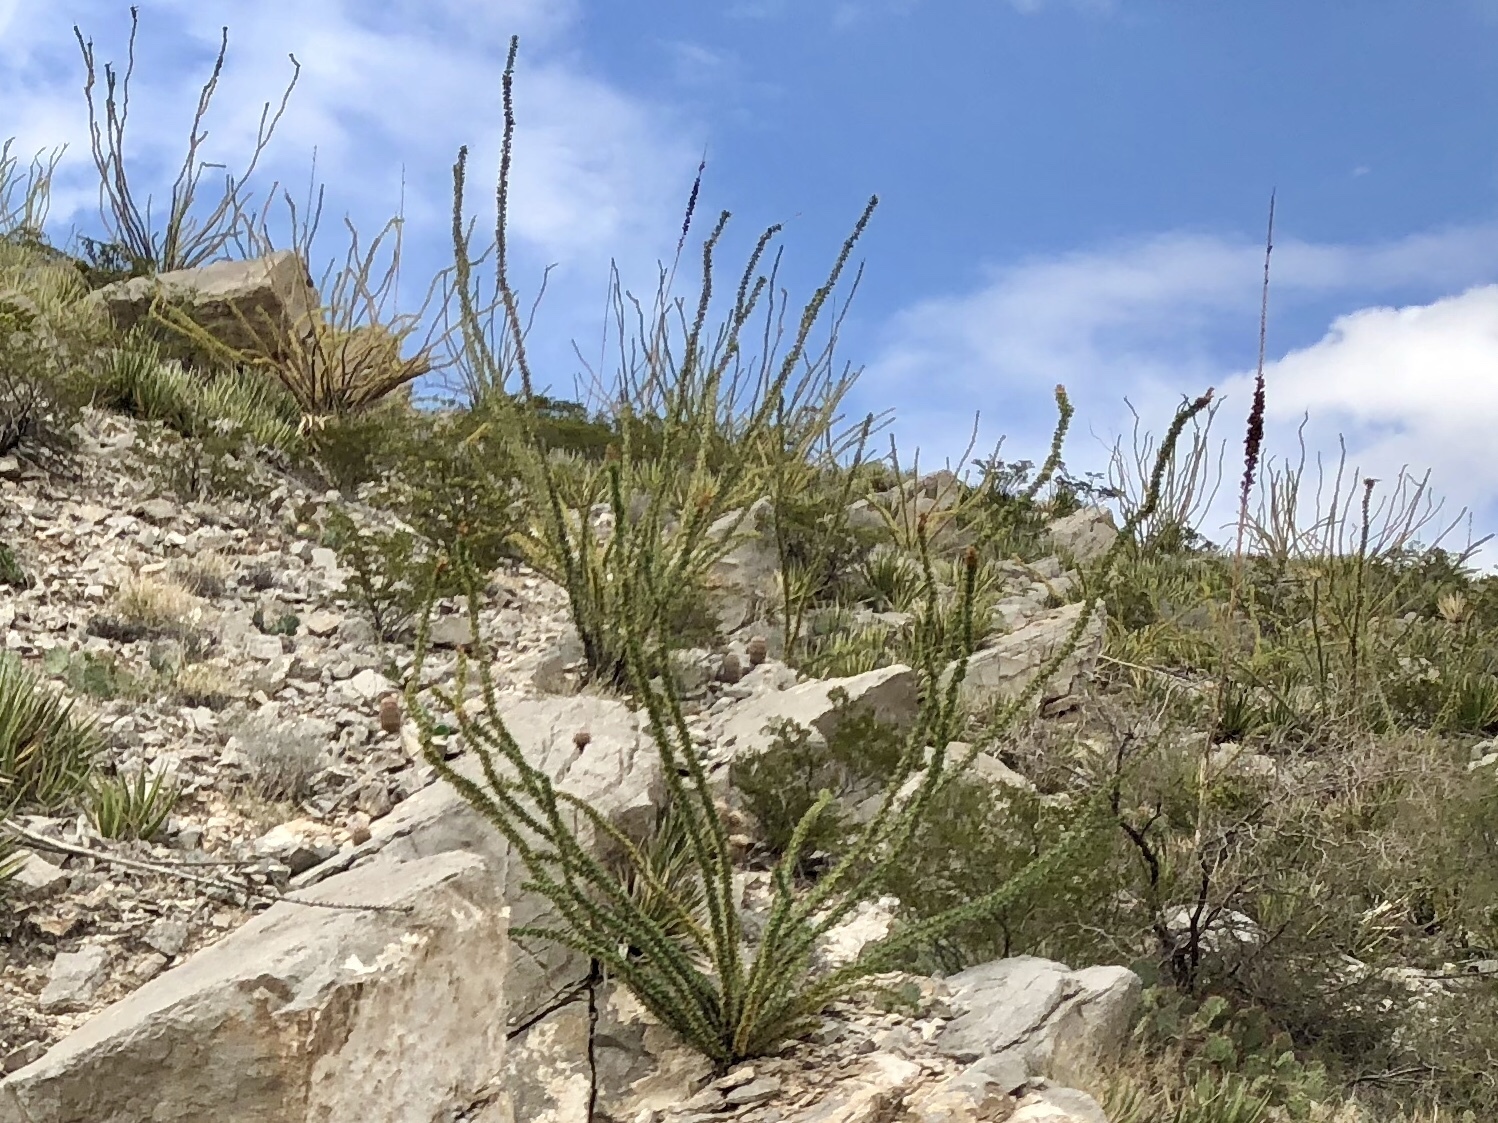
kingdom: Plantae
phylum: Tracheophyta
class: Magnoliopsida
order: Ericales
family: Fouquieriaceae
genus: Fouquieria
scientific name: Fouquieria splendens
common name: Vine-cactus
